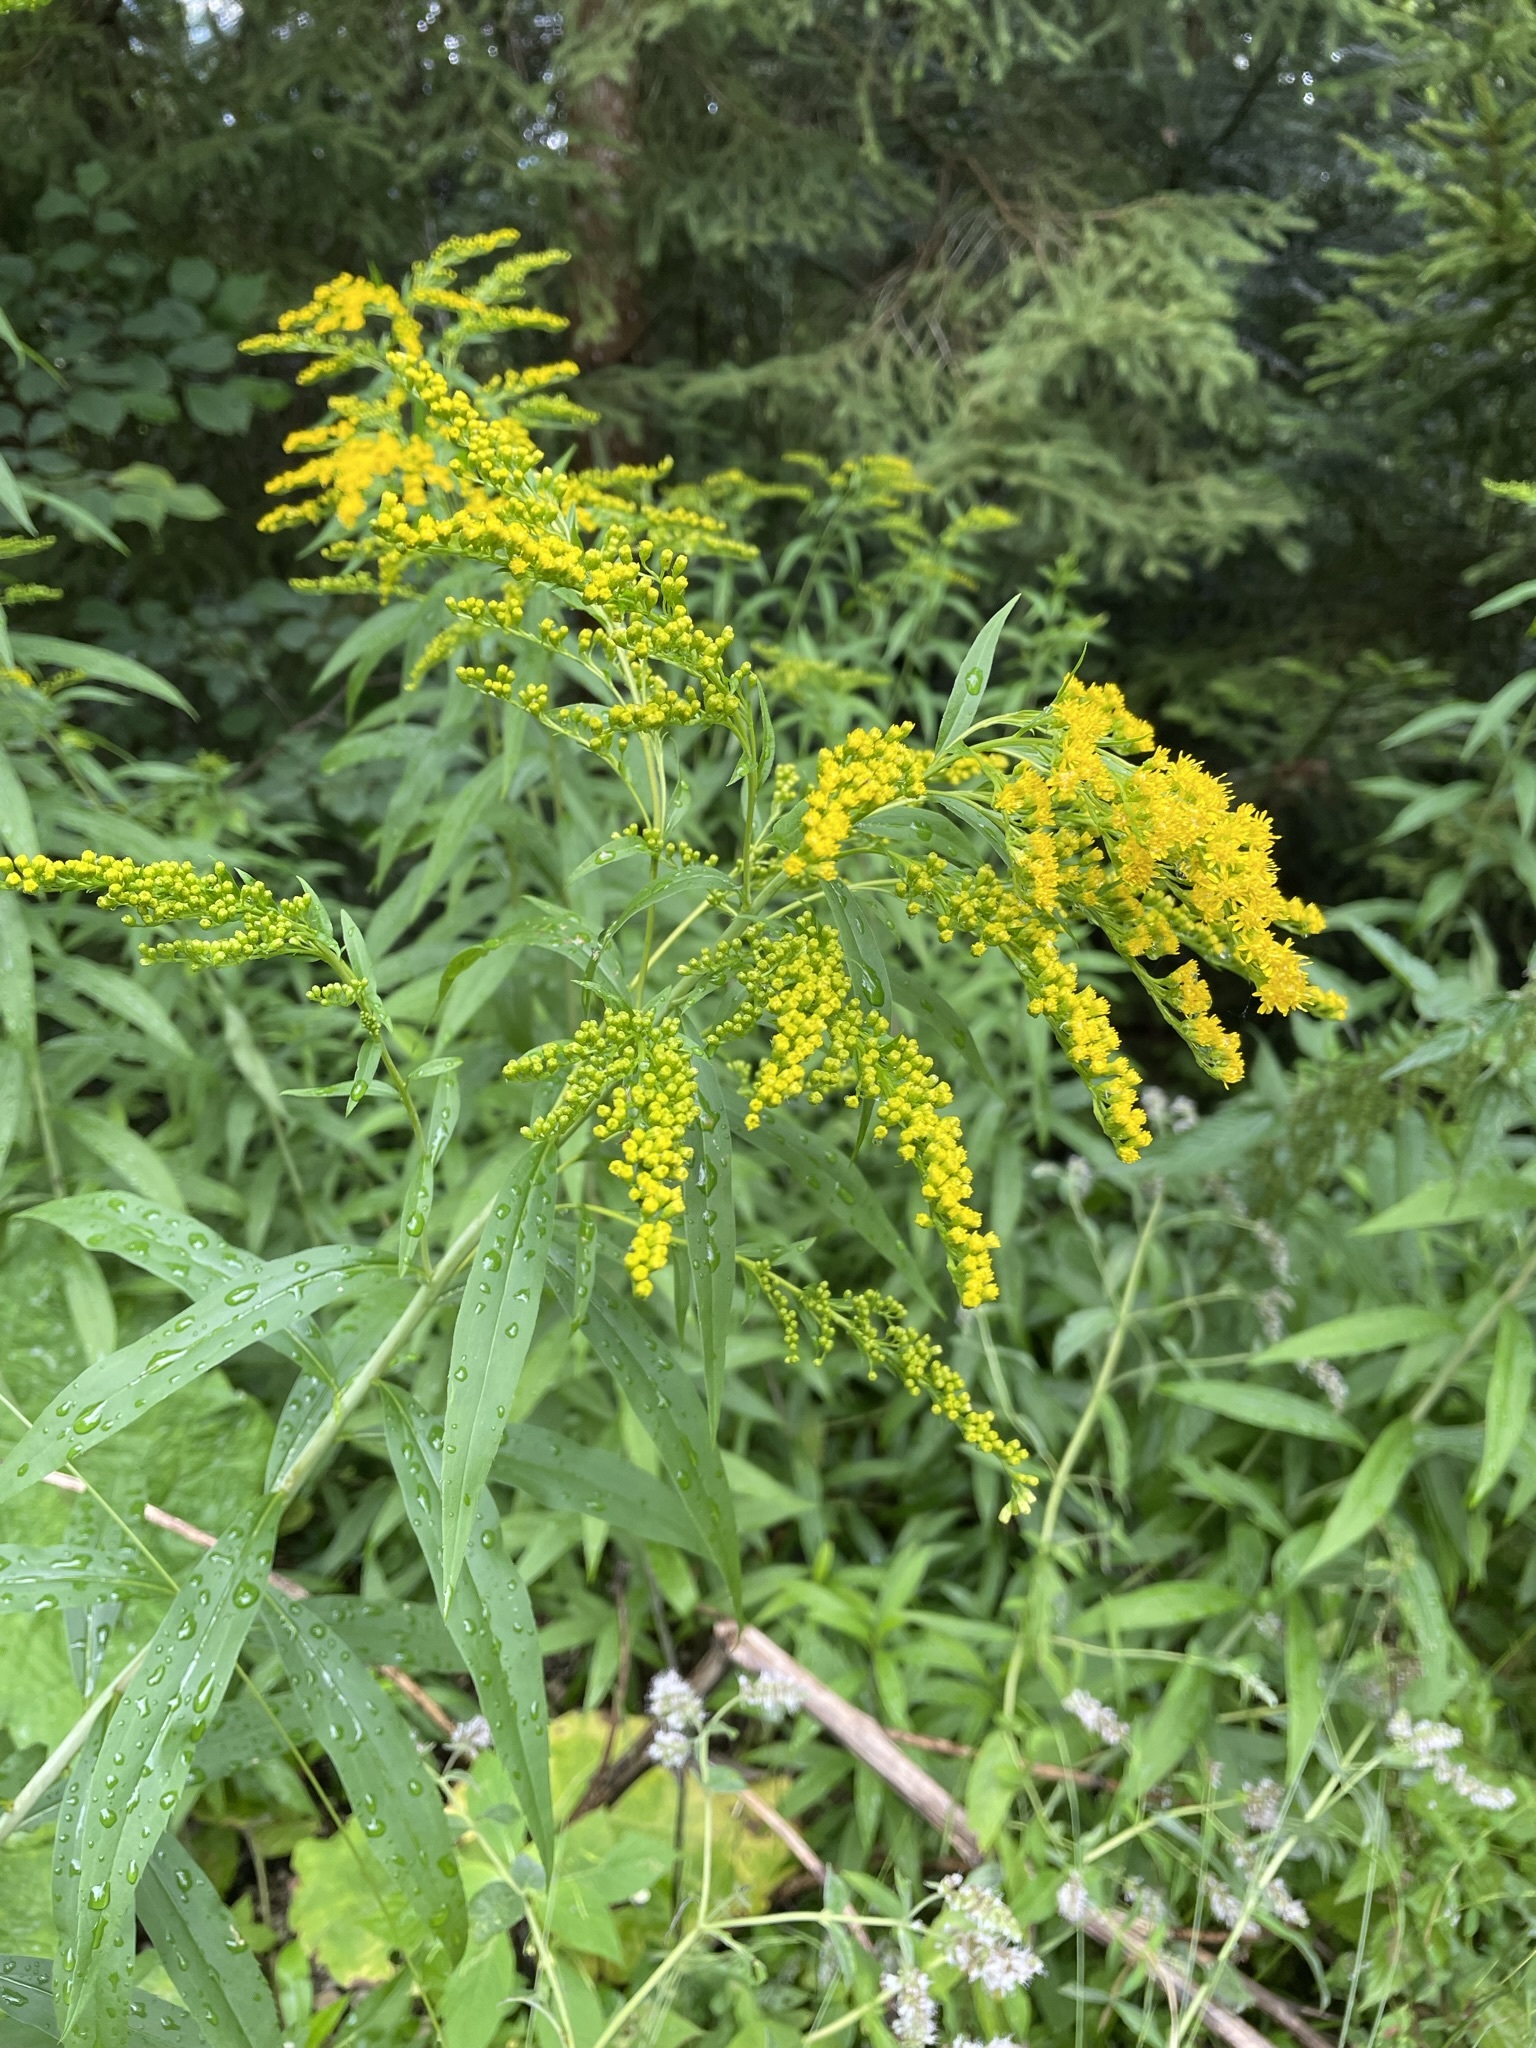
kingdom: Plantae
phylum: Tracheophyta
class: Magnoliopsida
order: Asterales
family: Asteraceae
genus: Solidago
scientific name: Solidago gigantea
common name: Giant goldenrod
